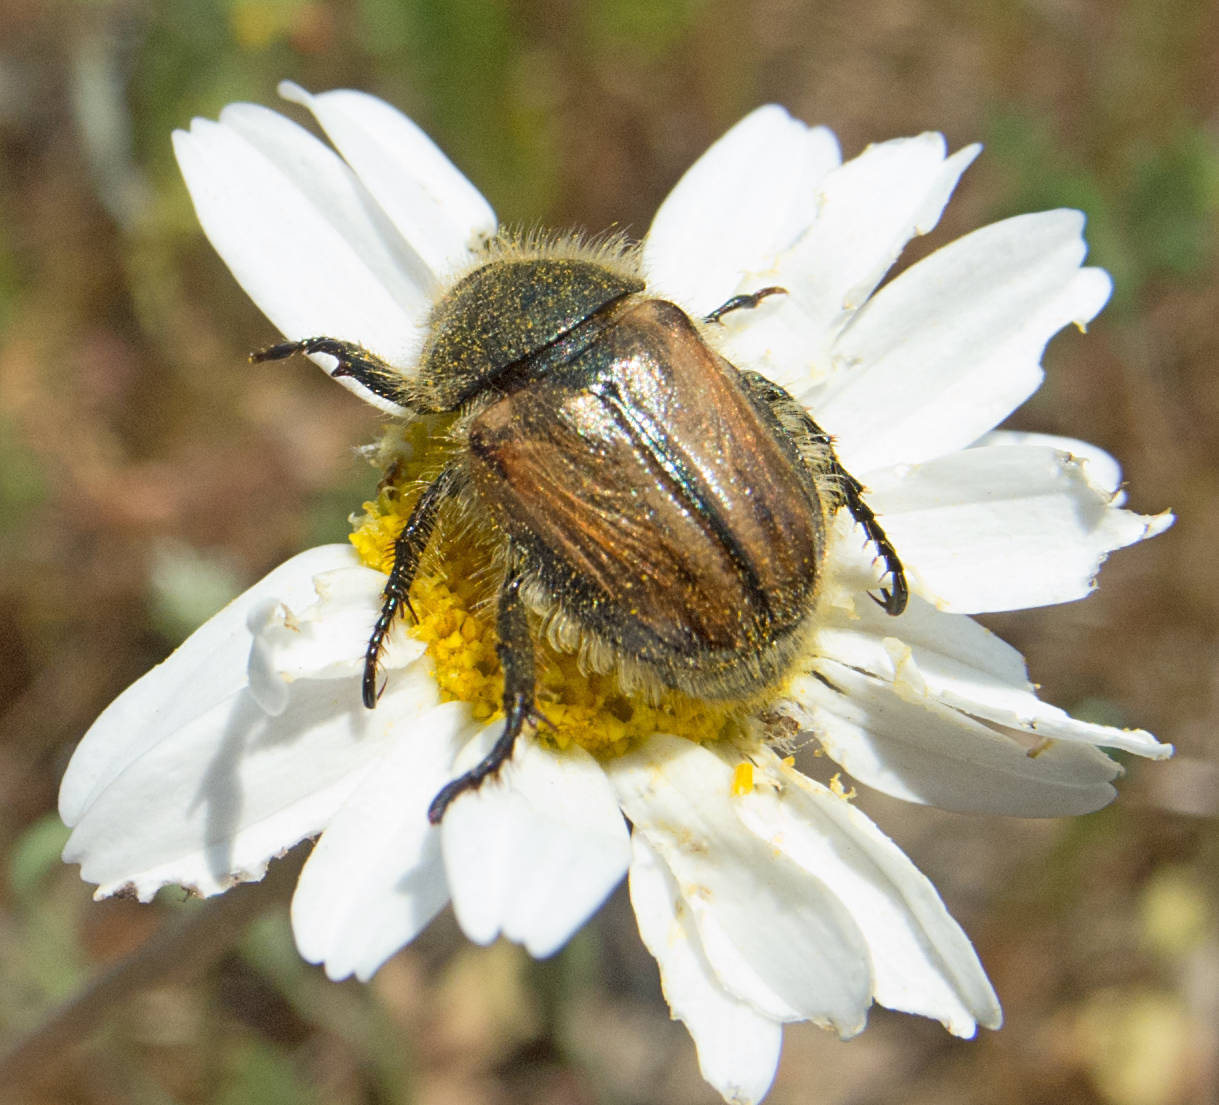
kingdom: Animalia
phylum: Arthropoda
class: Insecta
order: Coleoptera
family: Scarabaeidae
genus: Blitopertha
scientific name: Blitopertha lineolata
